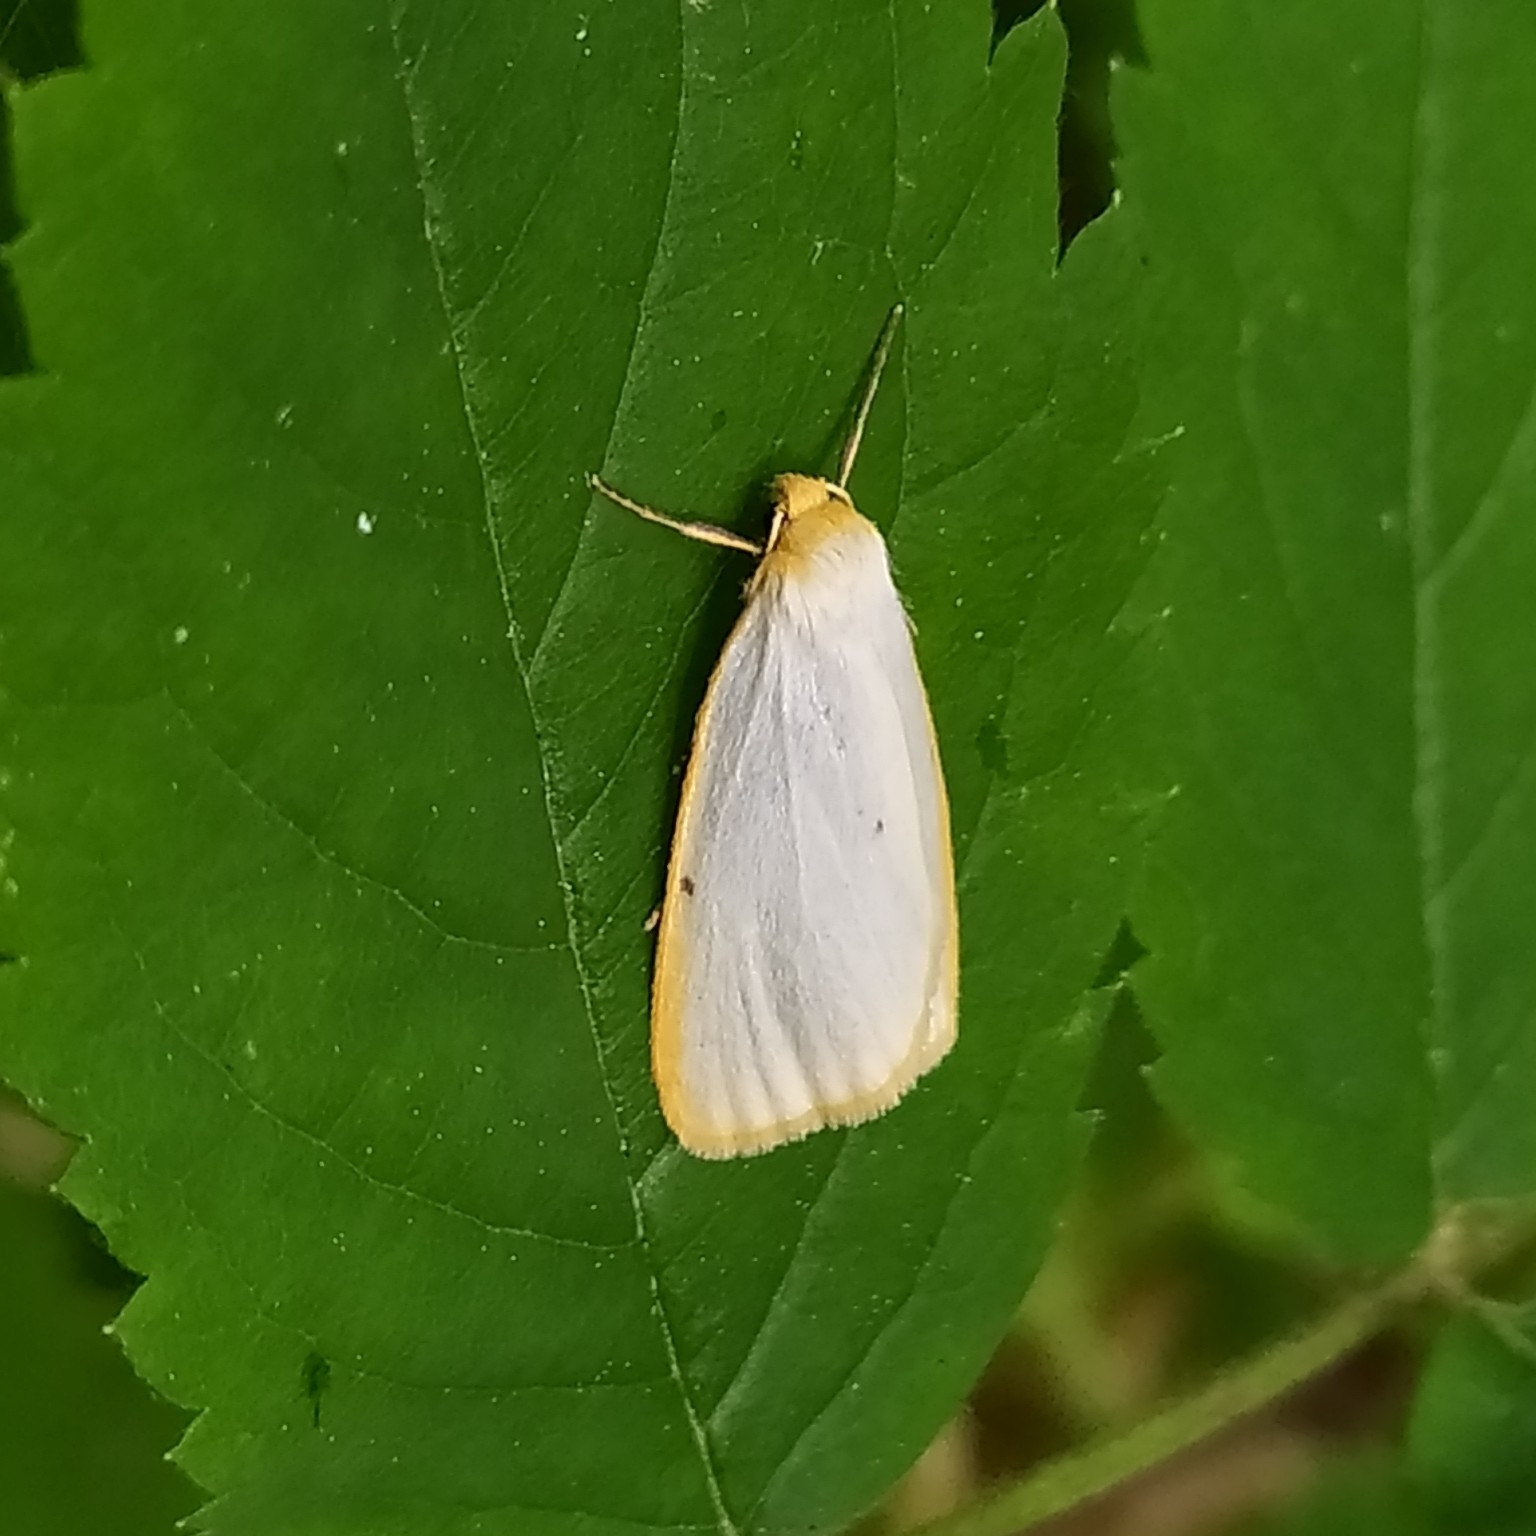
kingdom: Animalia
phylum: Arthropoda
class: Insecta
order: Lepidoptera
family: Erebidae
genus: Cybosia
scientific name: Cybosia mesomella
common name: Four-dotted footman
